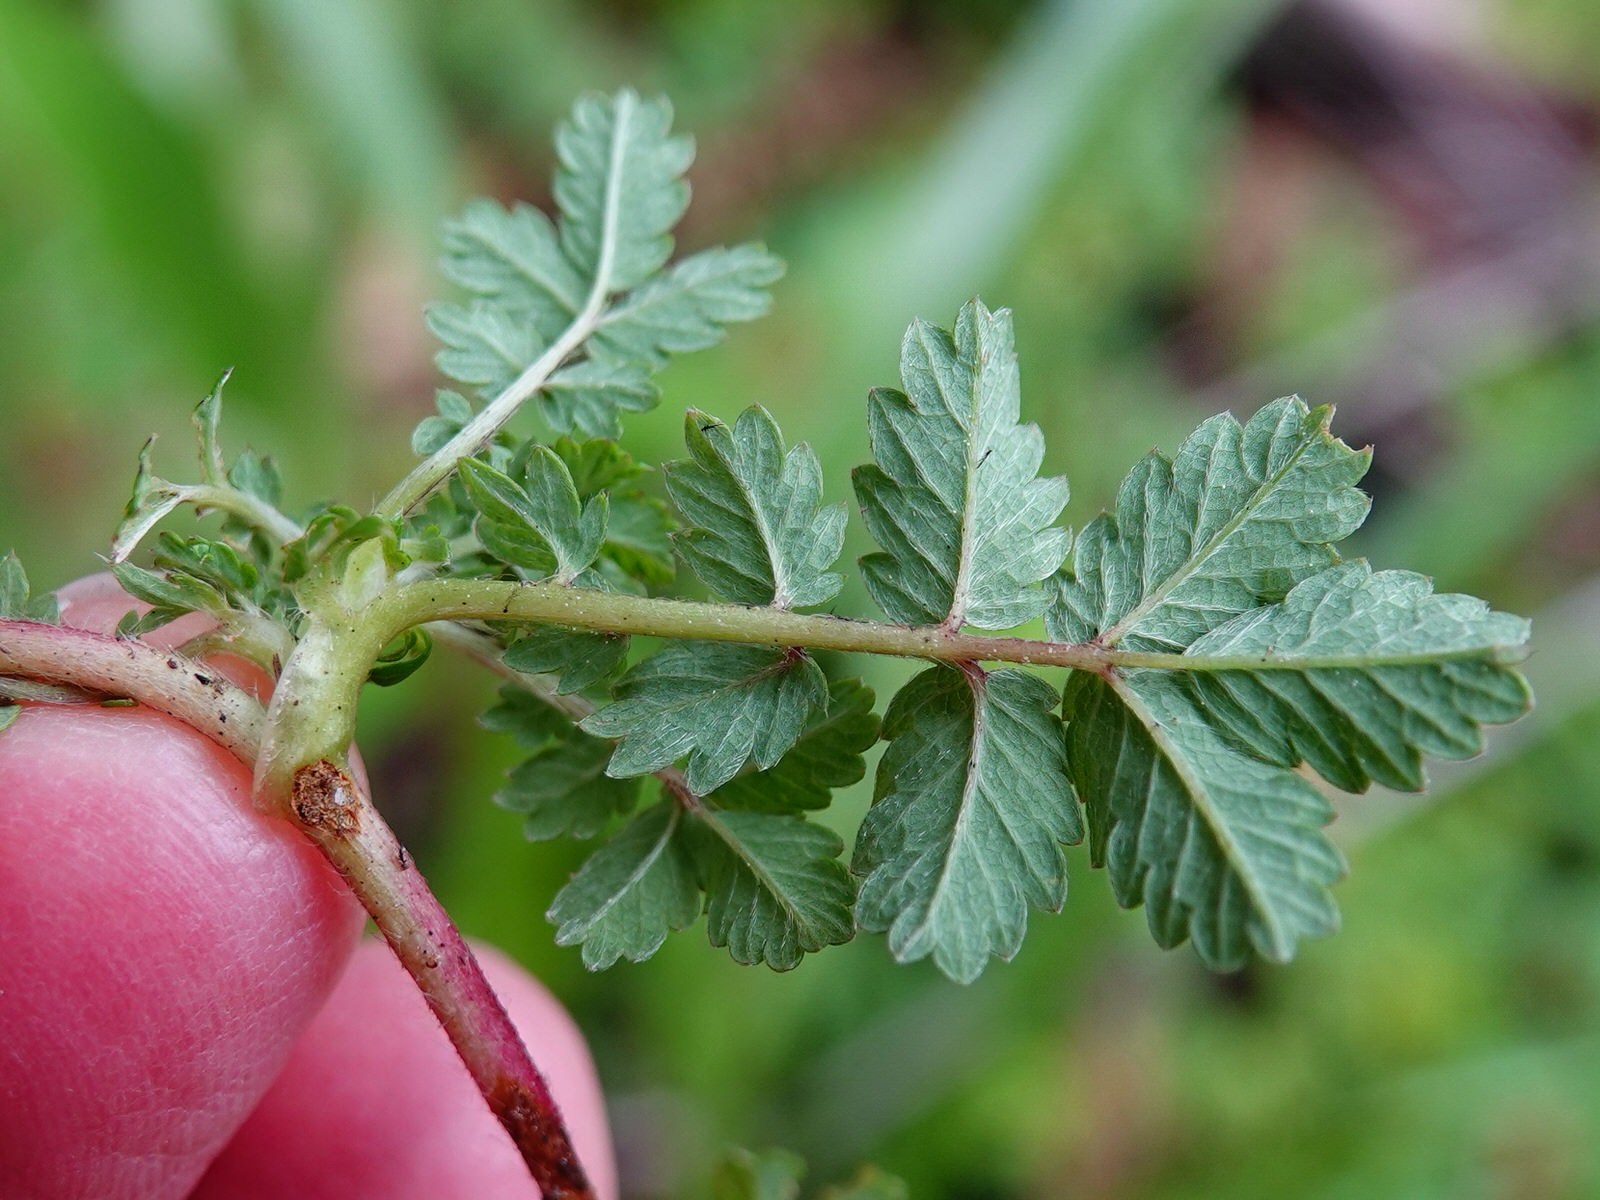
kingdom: Plantae
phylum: Tracheophyta
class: Magnoliopsida
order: Rosales
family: Rosaceae
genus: Acaena
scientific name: Acaena novae-zelandiae
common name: Pirri-pirri-bur
